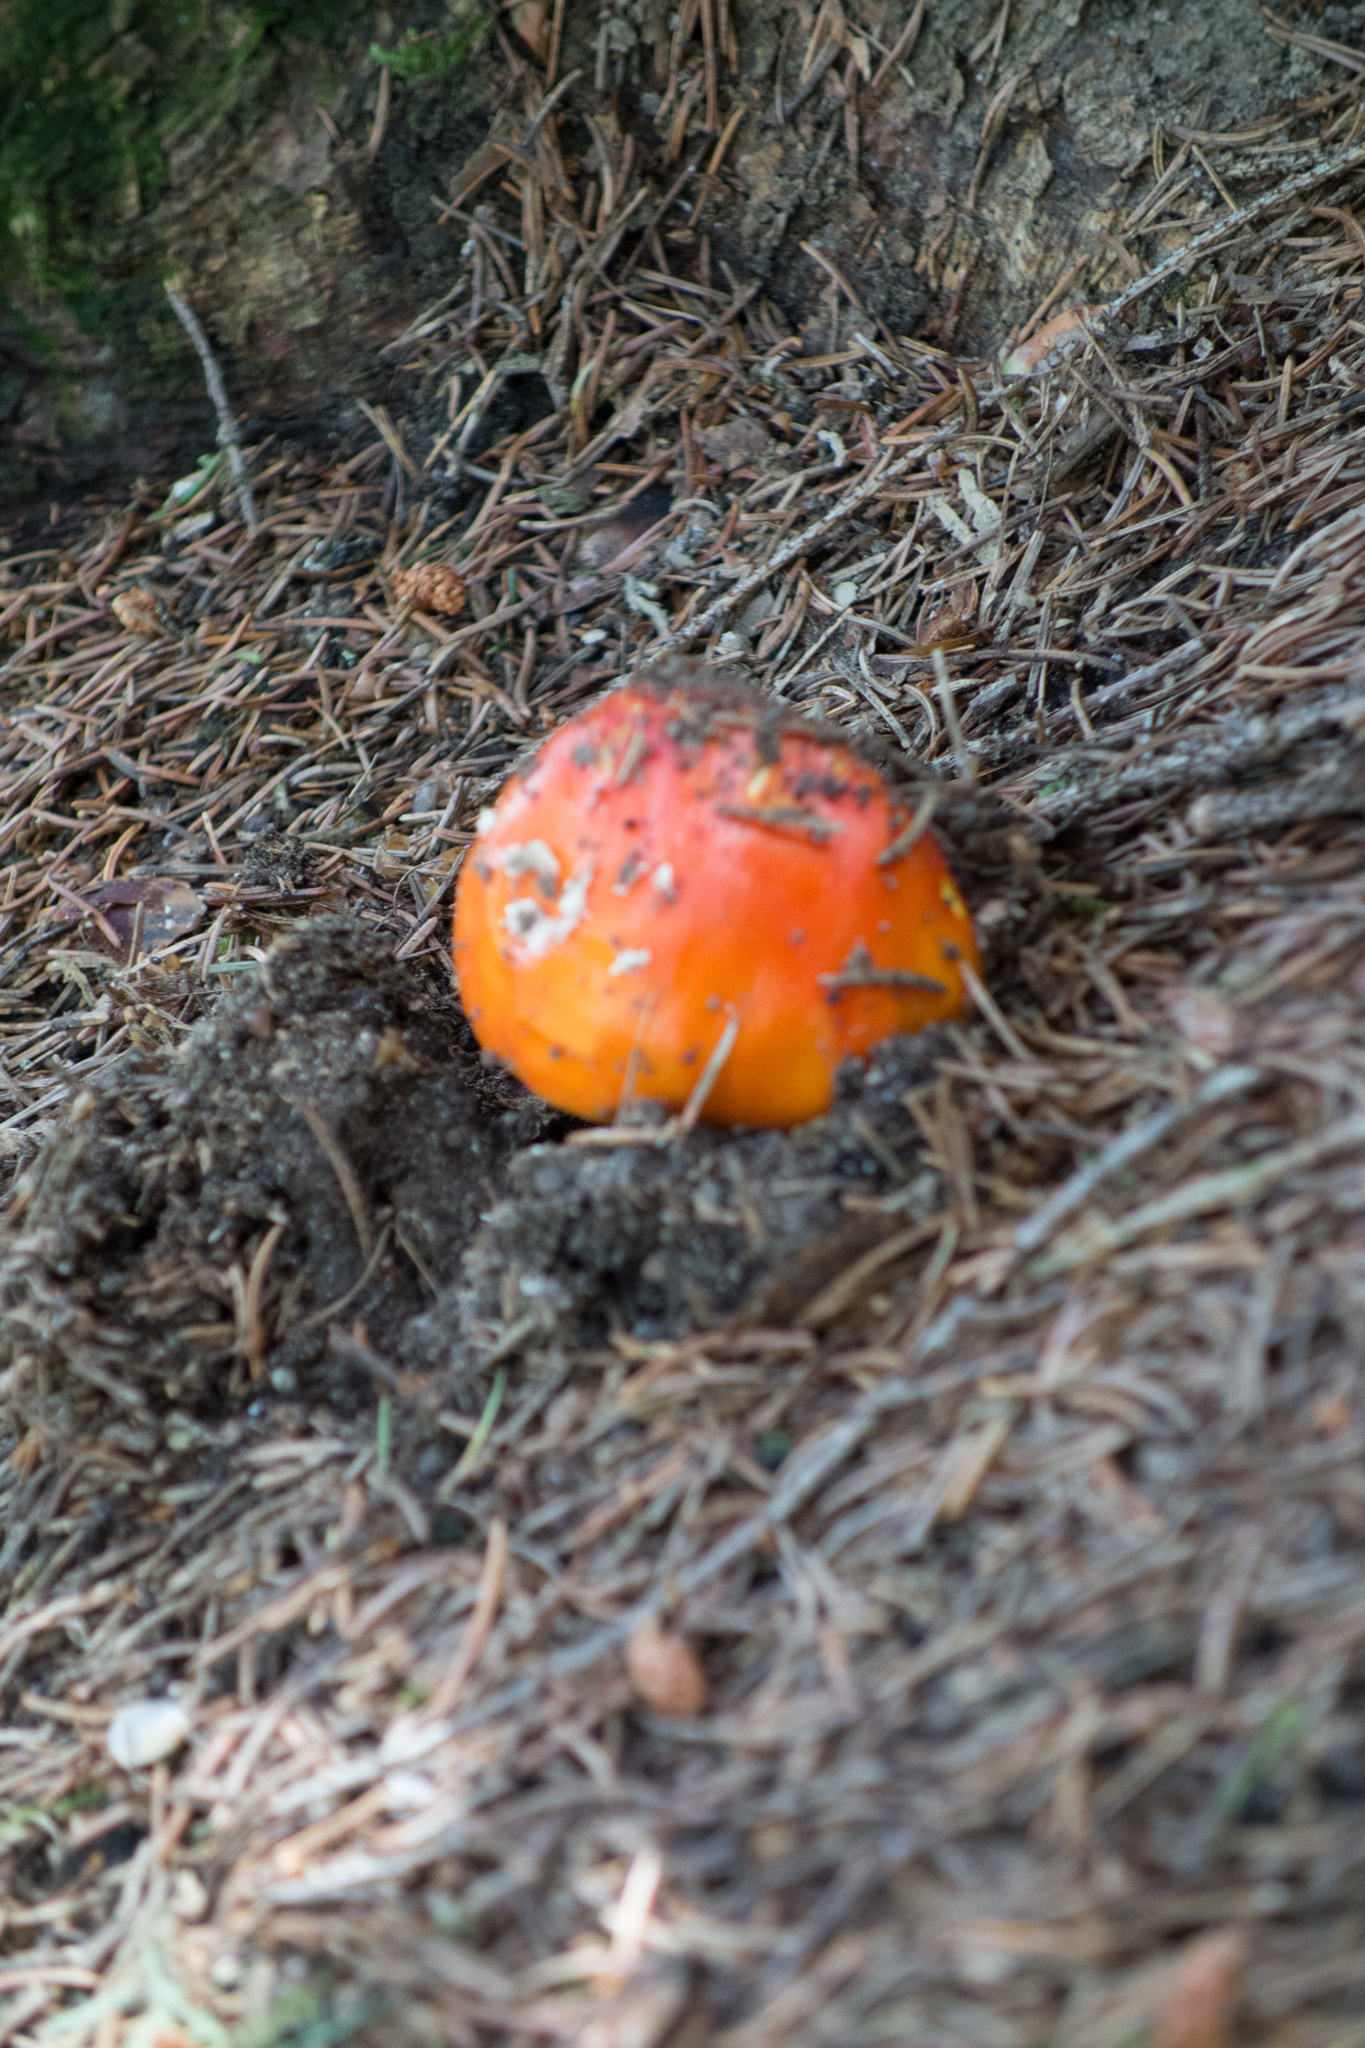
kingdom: Fungi
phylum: Basidiomycota
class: Agaricomycetes
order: Agaricales
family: Amanitaceae
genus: Amanita
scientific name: Amanita muscaria
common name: Fly agaric
